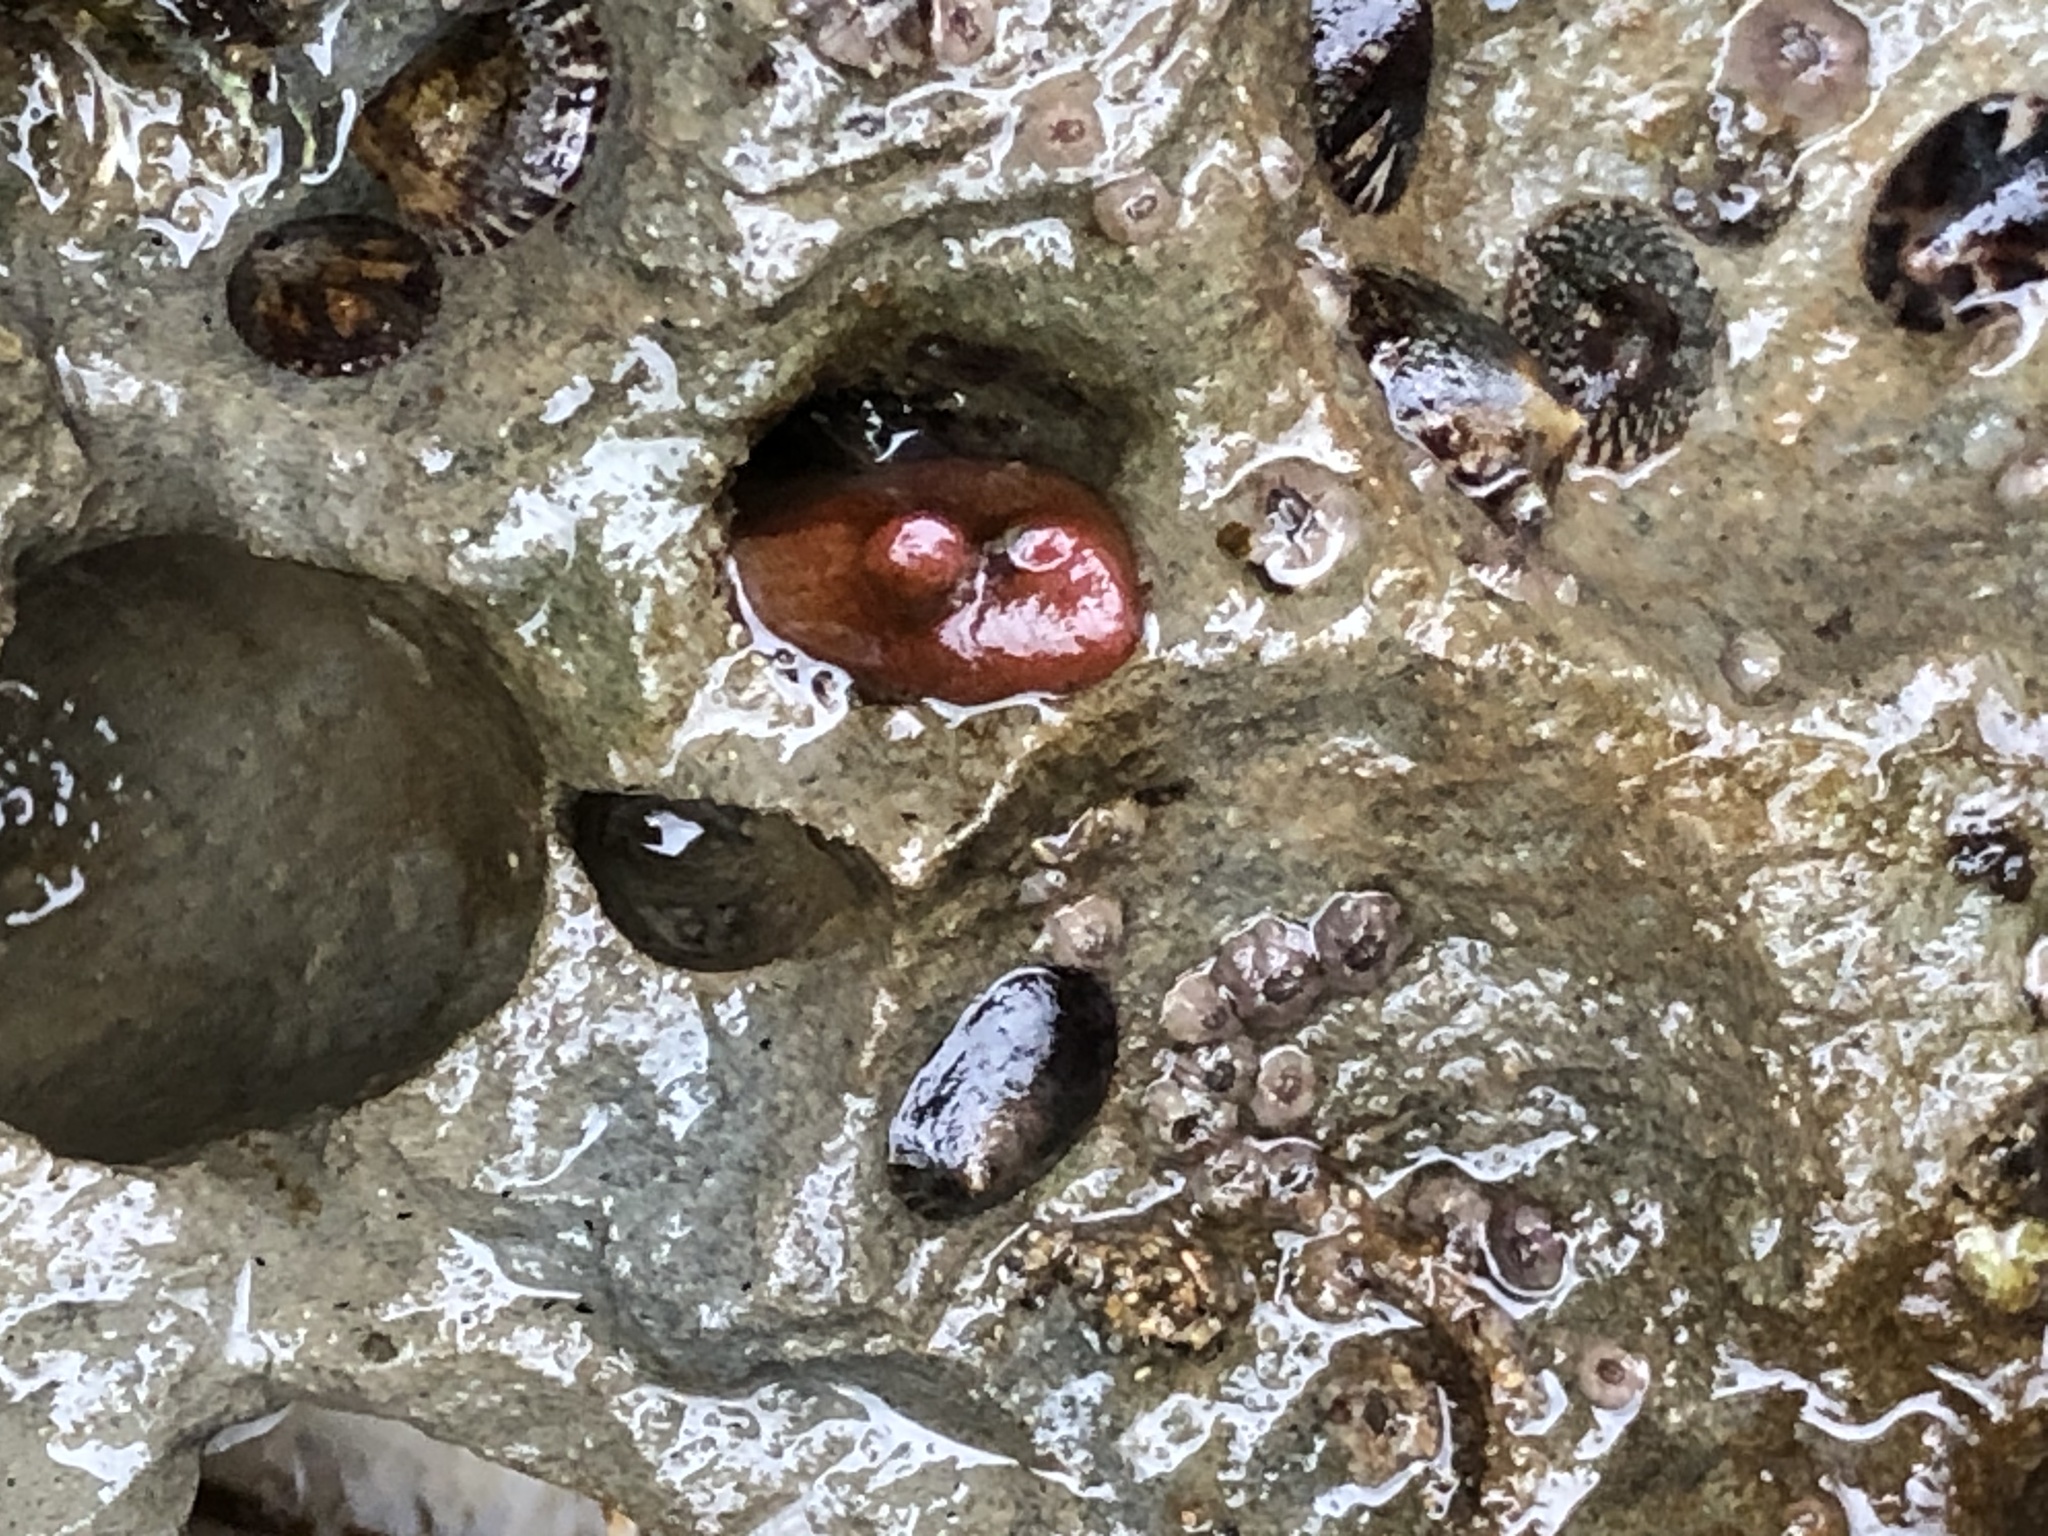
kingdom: Animalia
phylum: Mollusca
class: Bivalvia
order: Adapedonta
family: Hiatellidae
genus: Hiatella
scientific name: Hiatella arctica
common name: Arctic hiatella
